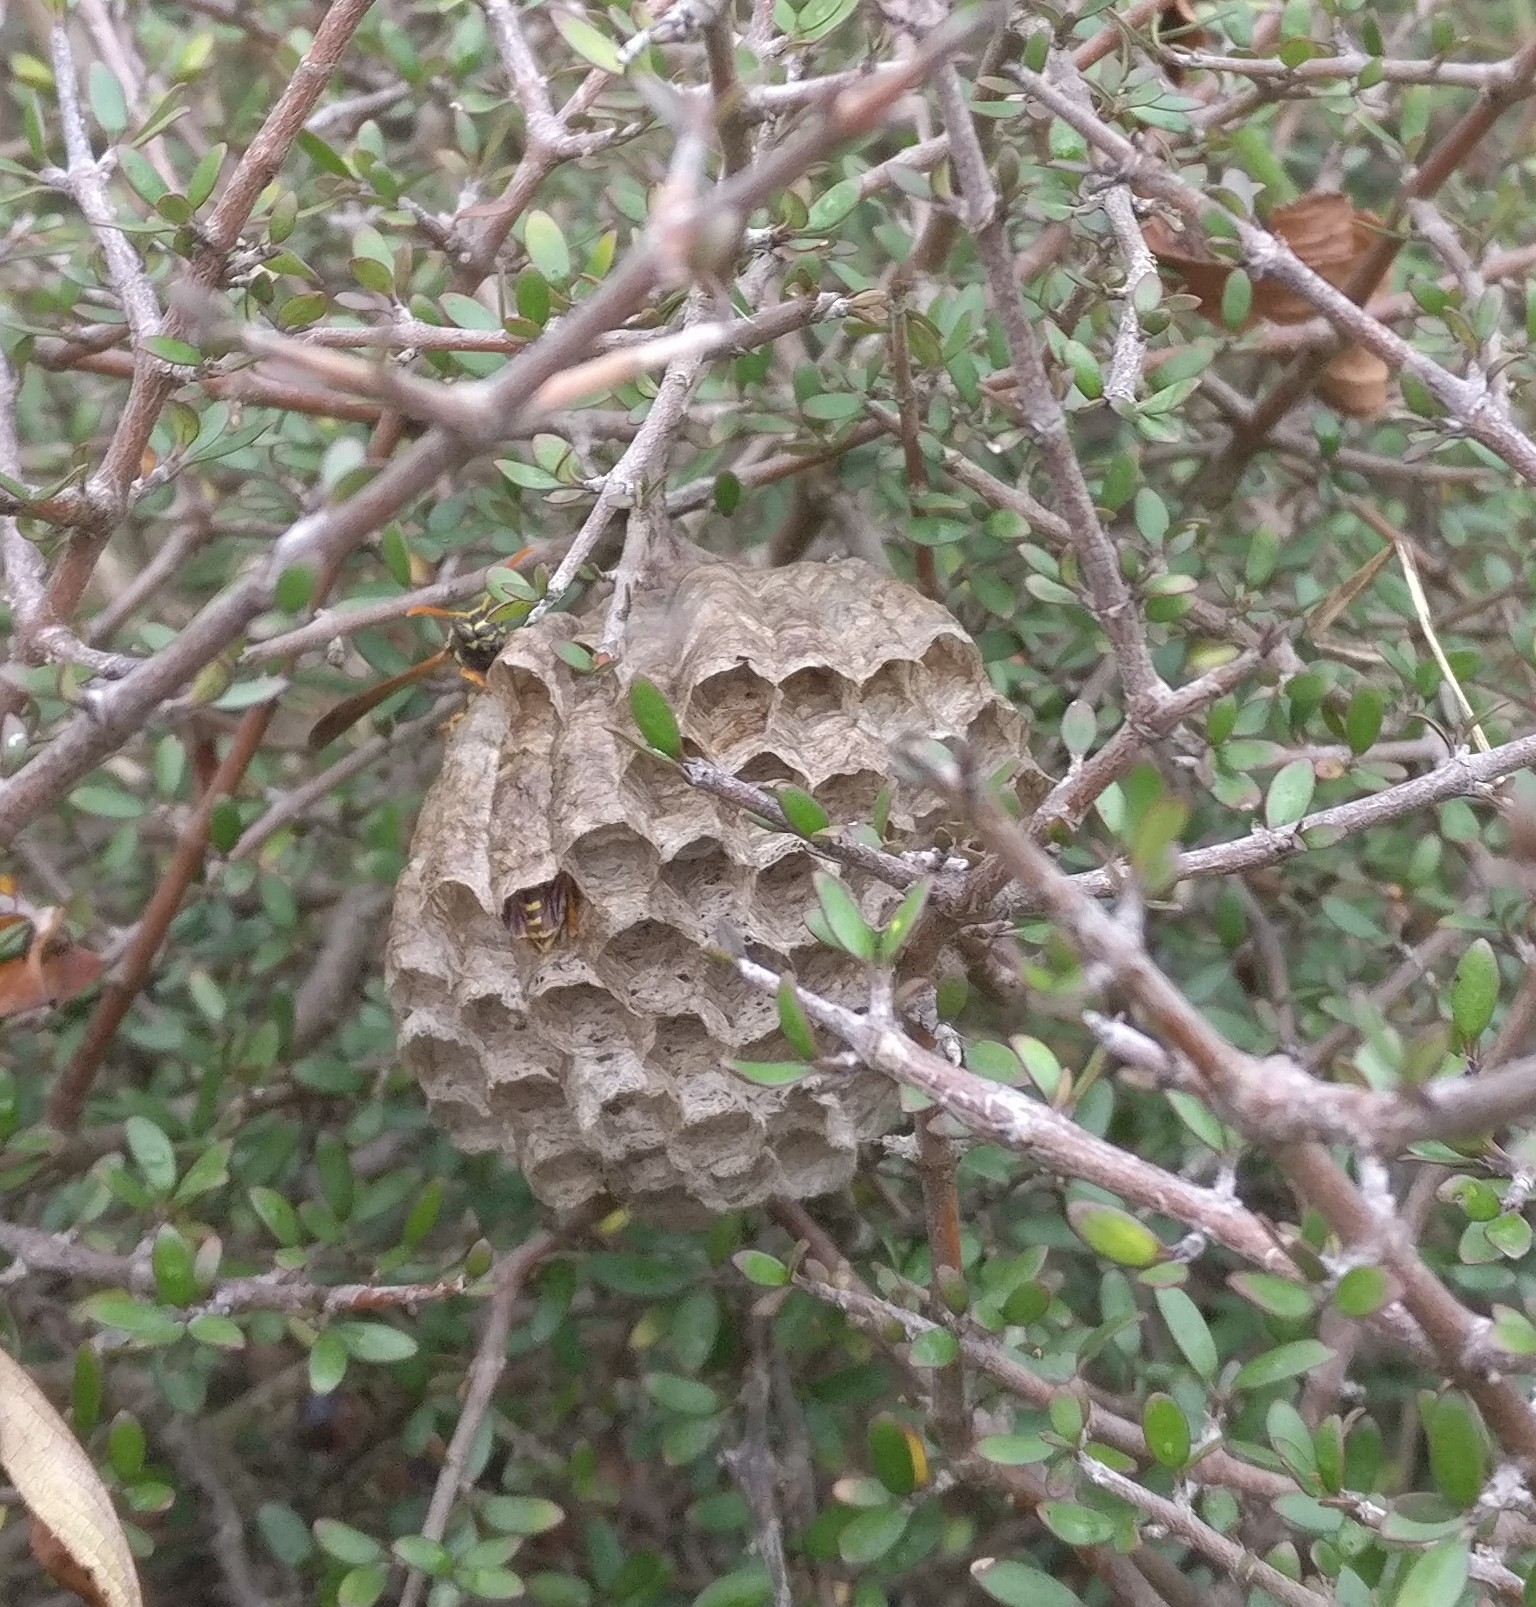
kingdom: Animalia
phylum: Arthropoda
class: Insecta
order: Hymenoptera
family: Eumenidae
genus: Polistes
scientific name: Polistes chinensis
